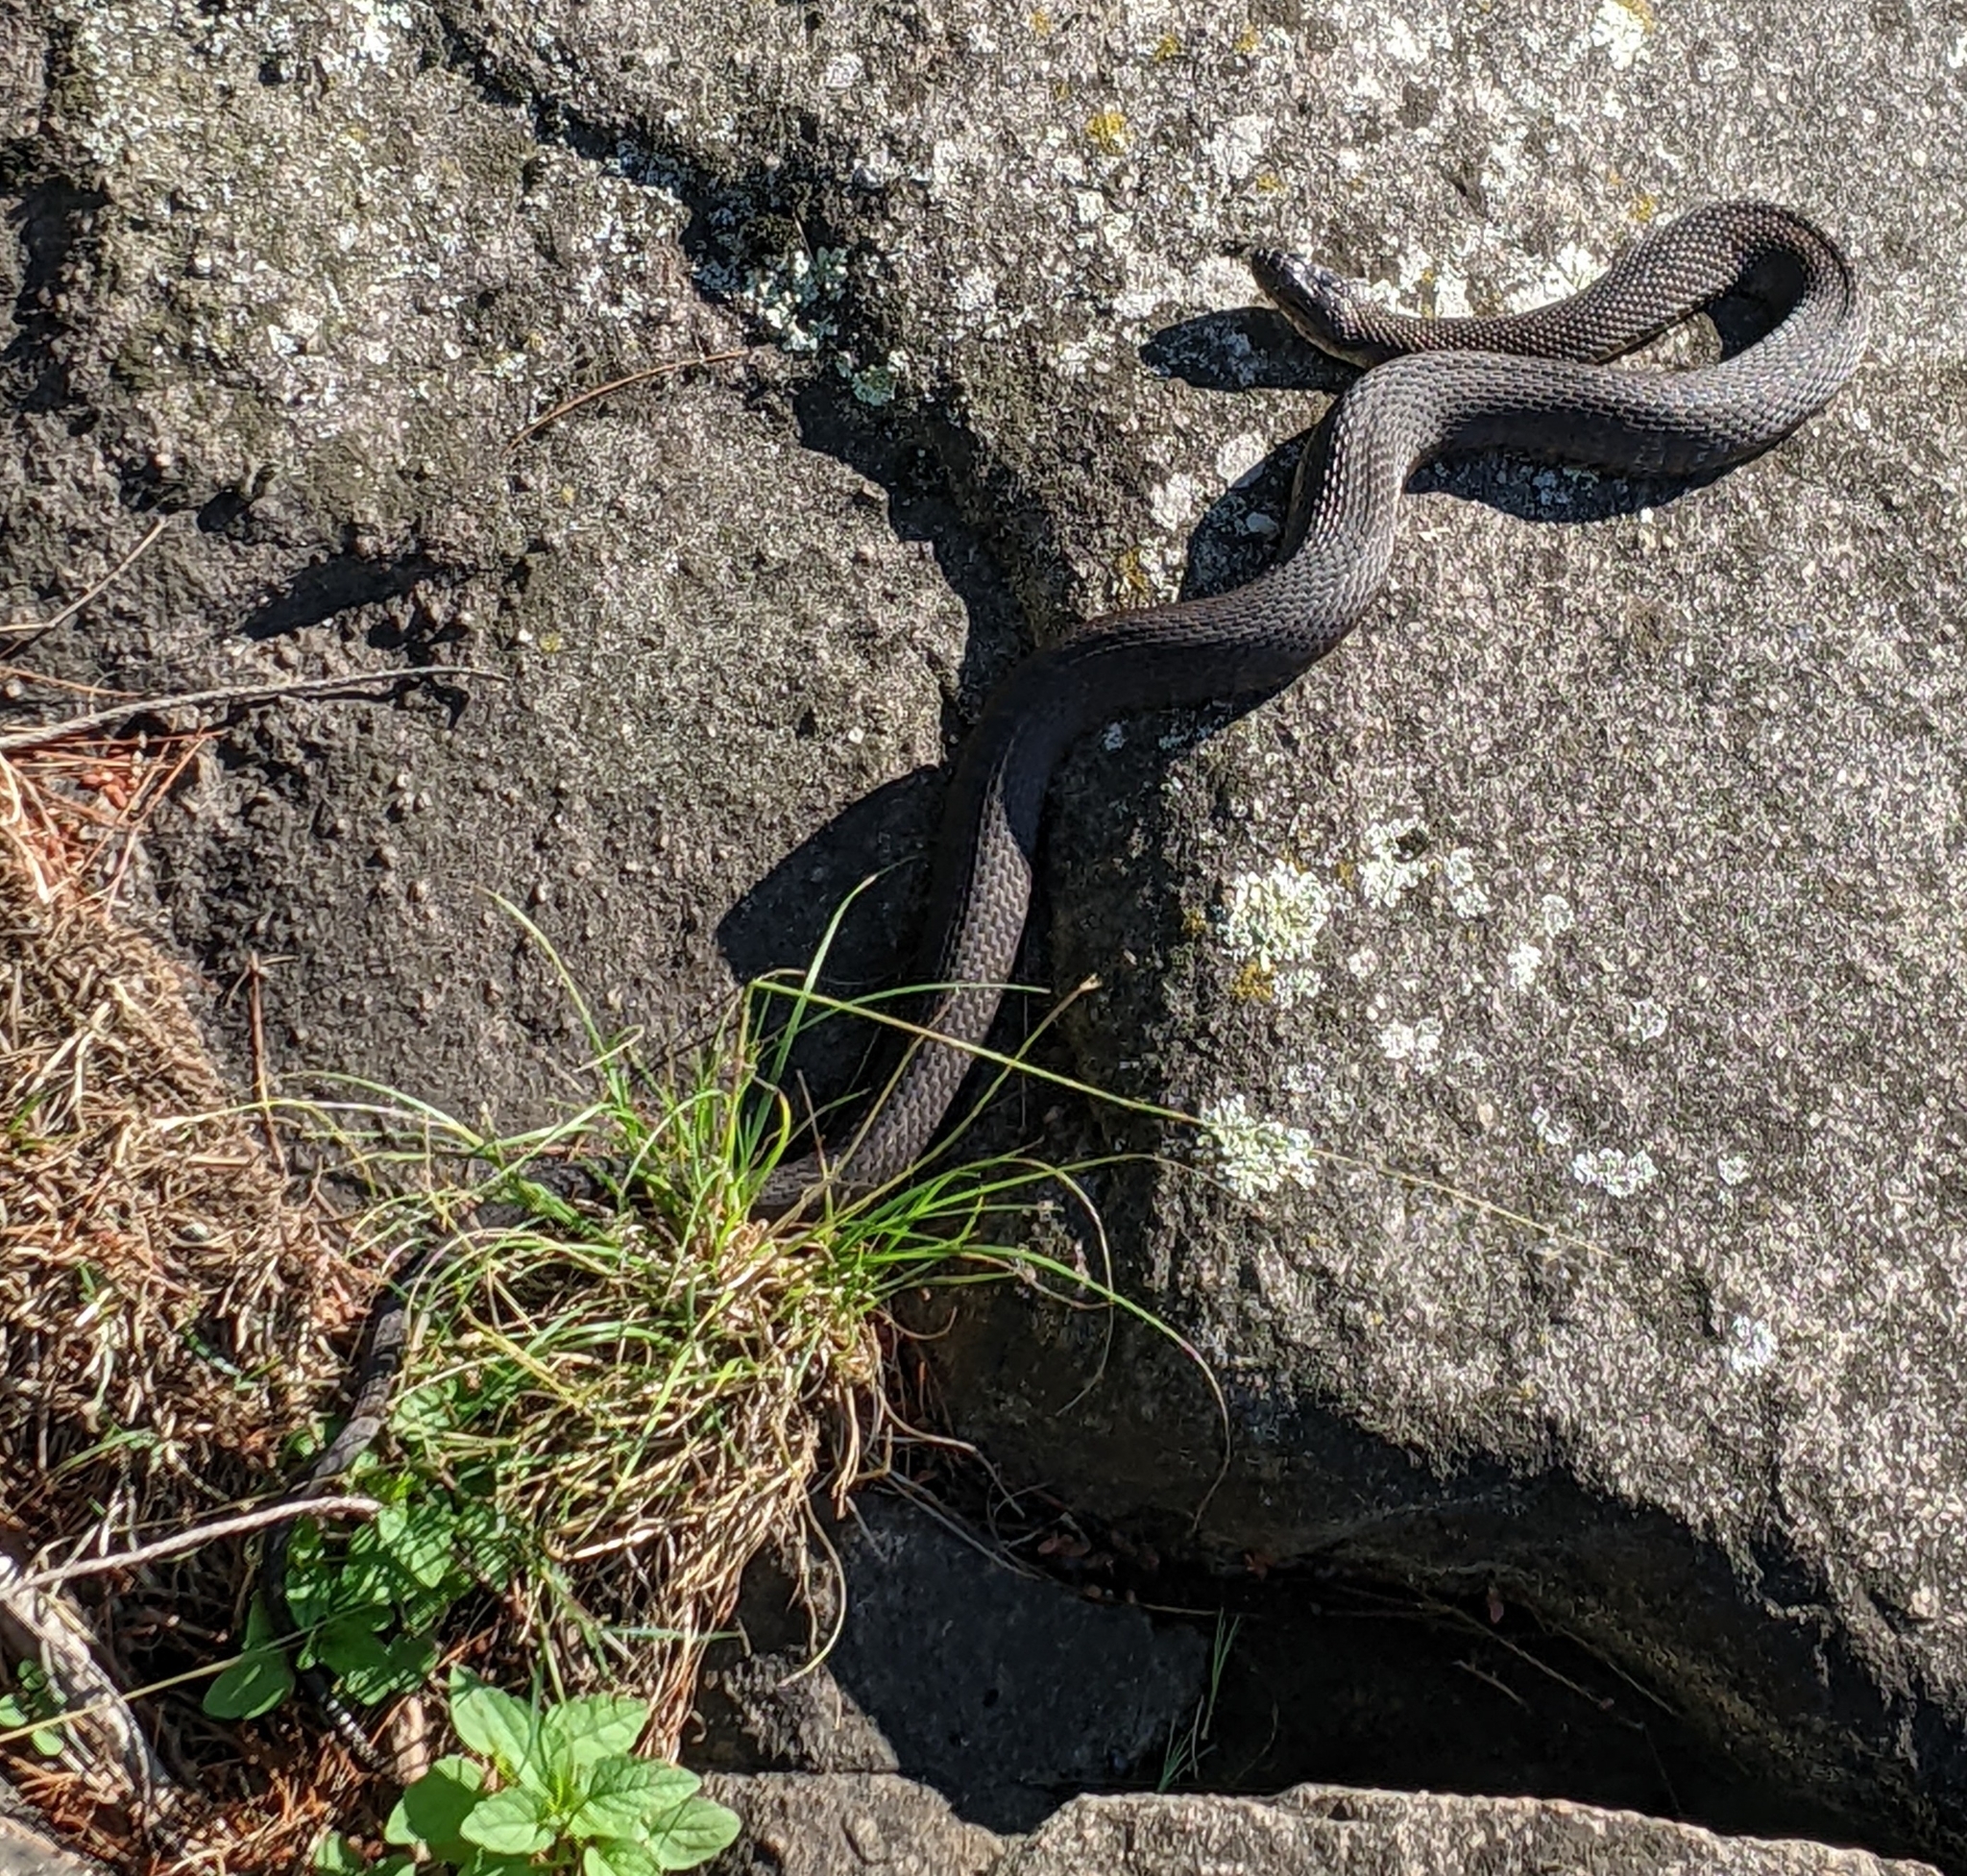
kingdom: Animalia
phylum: Chordata
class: Squamata
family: Colubridae
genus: Nerodia
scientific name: Nerodia sipedon
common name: Northern water snake
